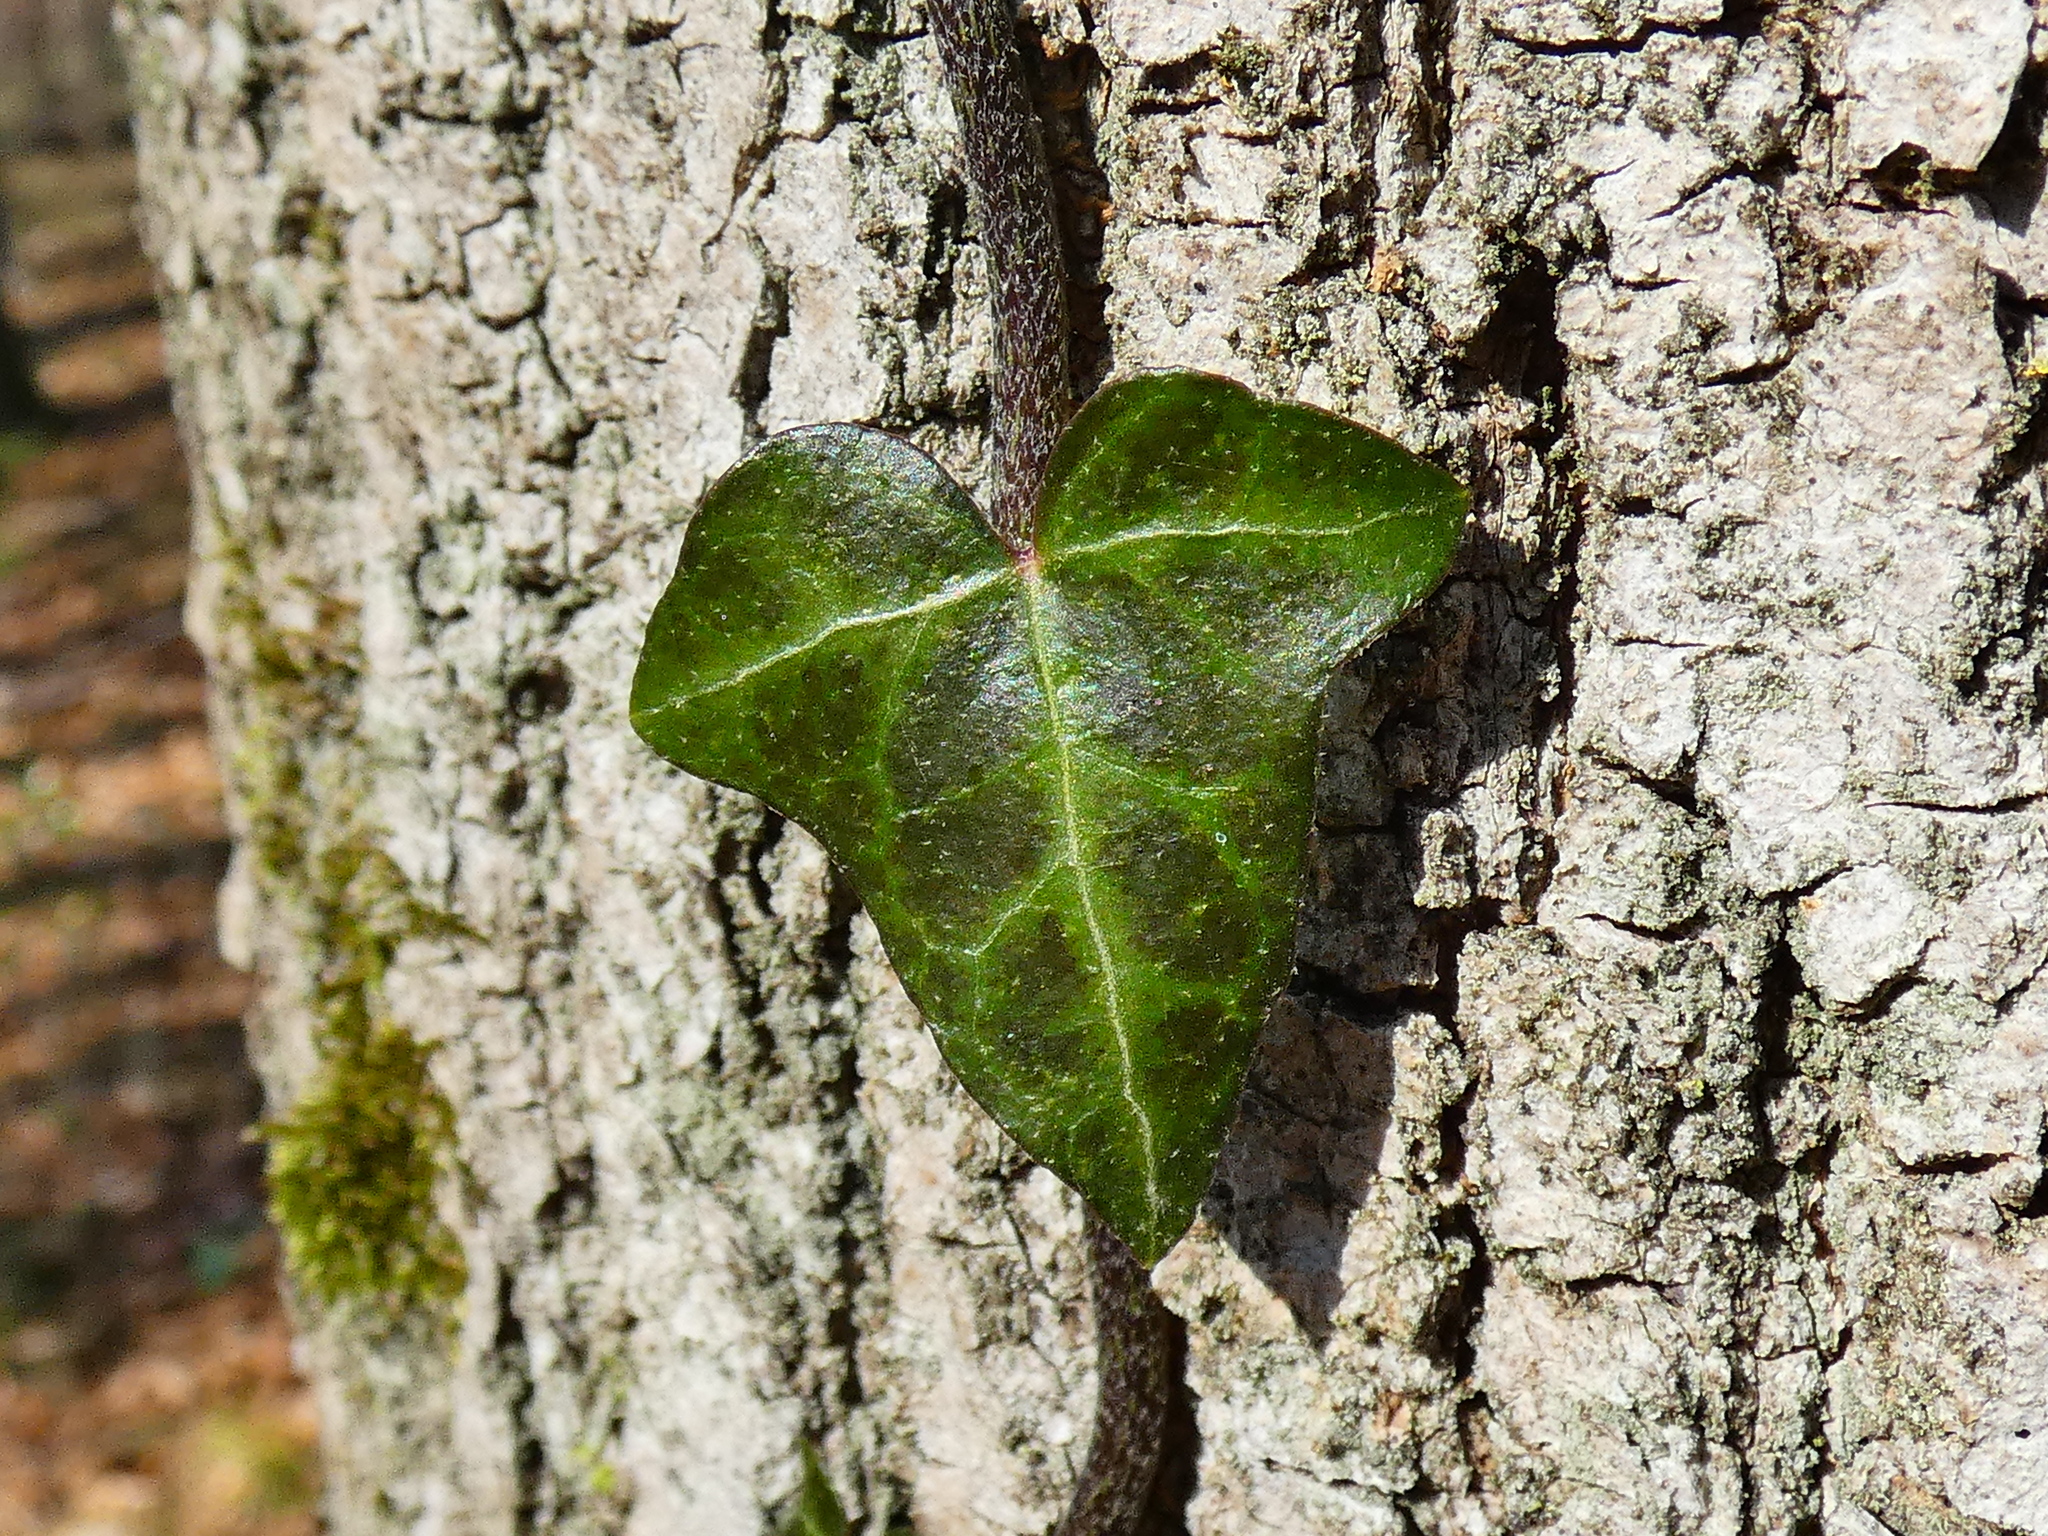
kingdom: Plantae
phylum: Tracheophyta
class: Magnoliopsida
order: Apiales
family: Araliaceae
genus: Hedera
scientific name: Hedera helix
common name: Ivy
